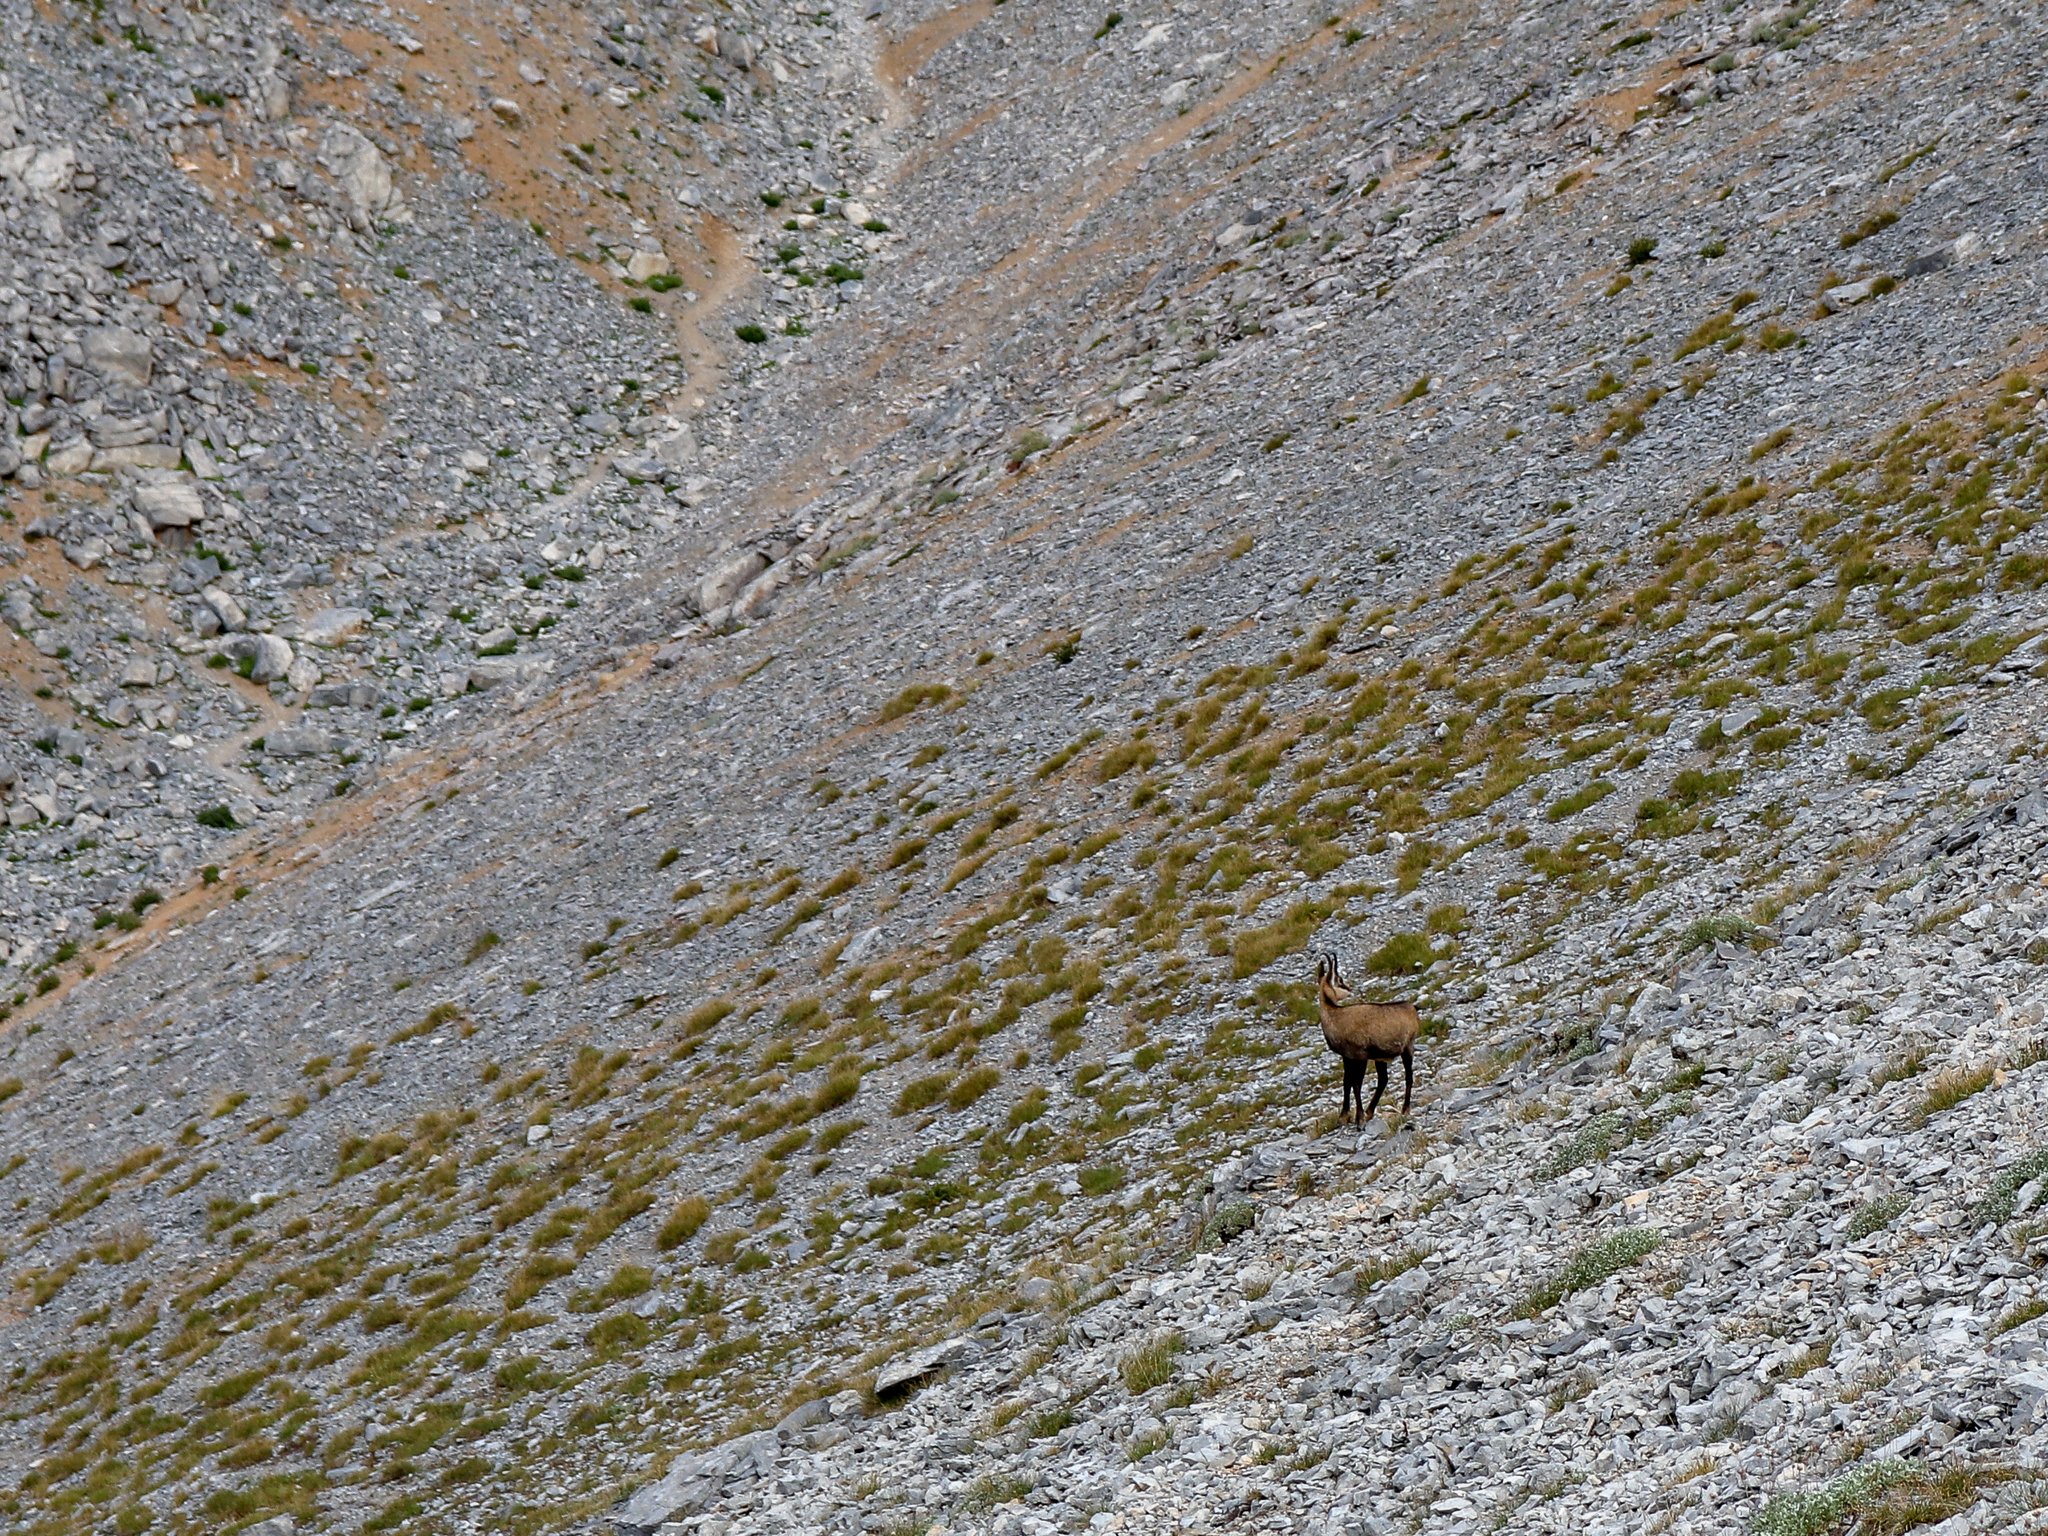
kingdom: Animalia
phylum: Chordata
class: Mammalia
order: Artiodactyla
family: Bovidae
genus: Rupicapra
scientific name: Rupicapra rupicapra
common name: Chamois
